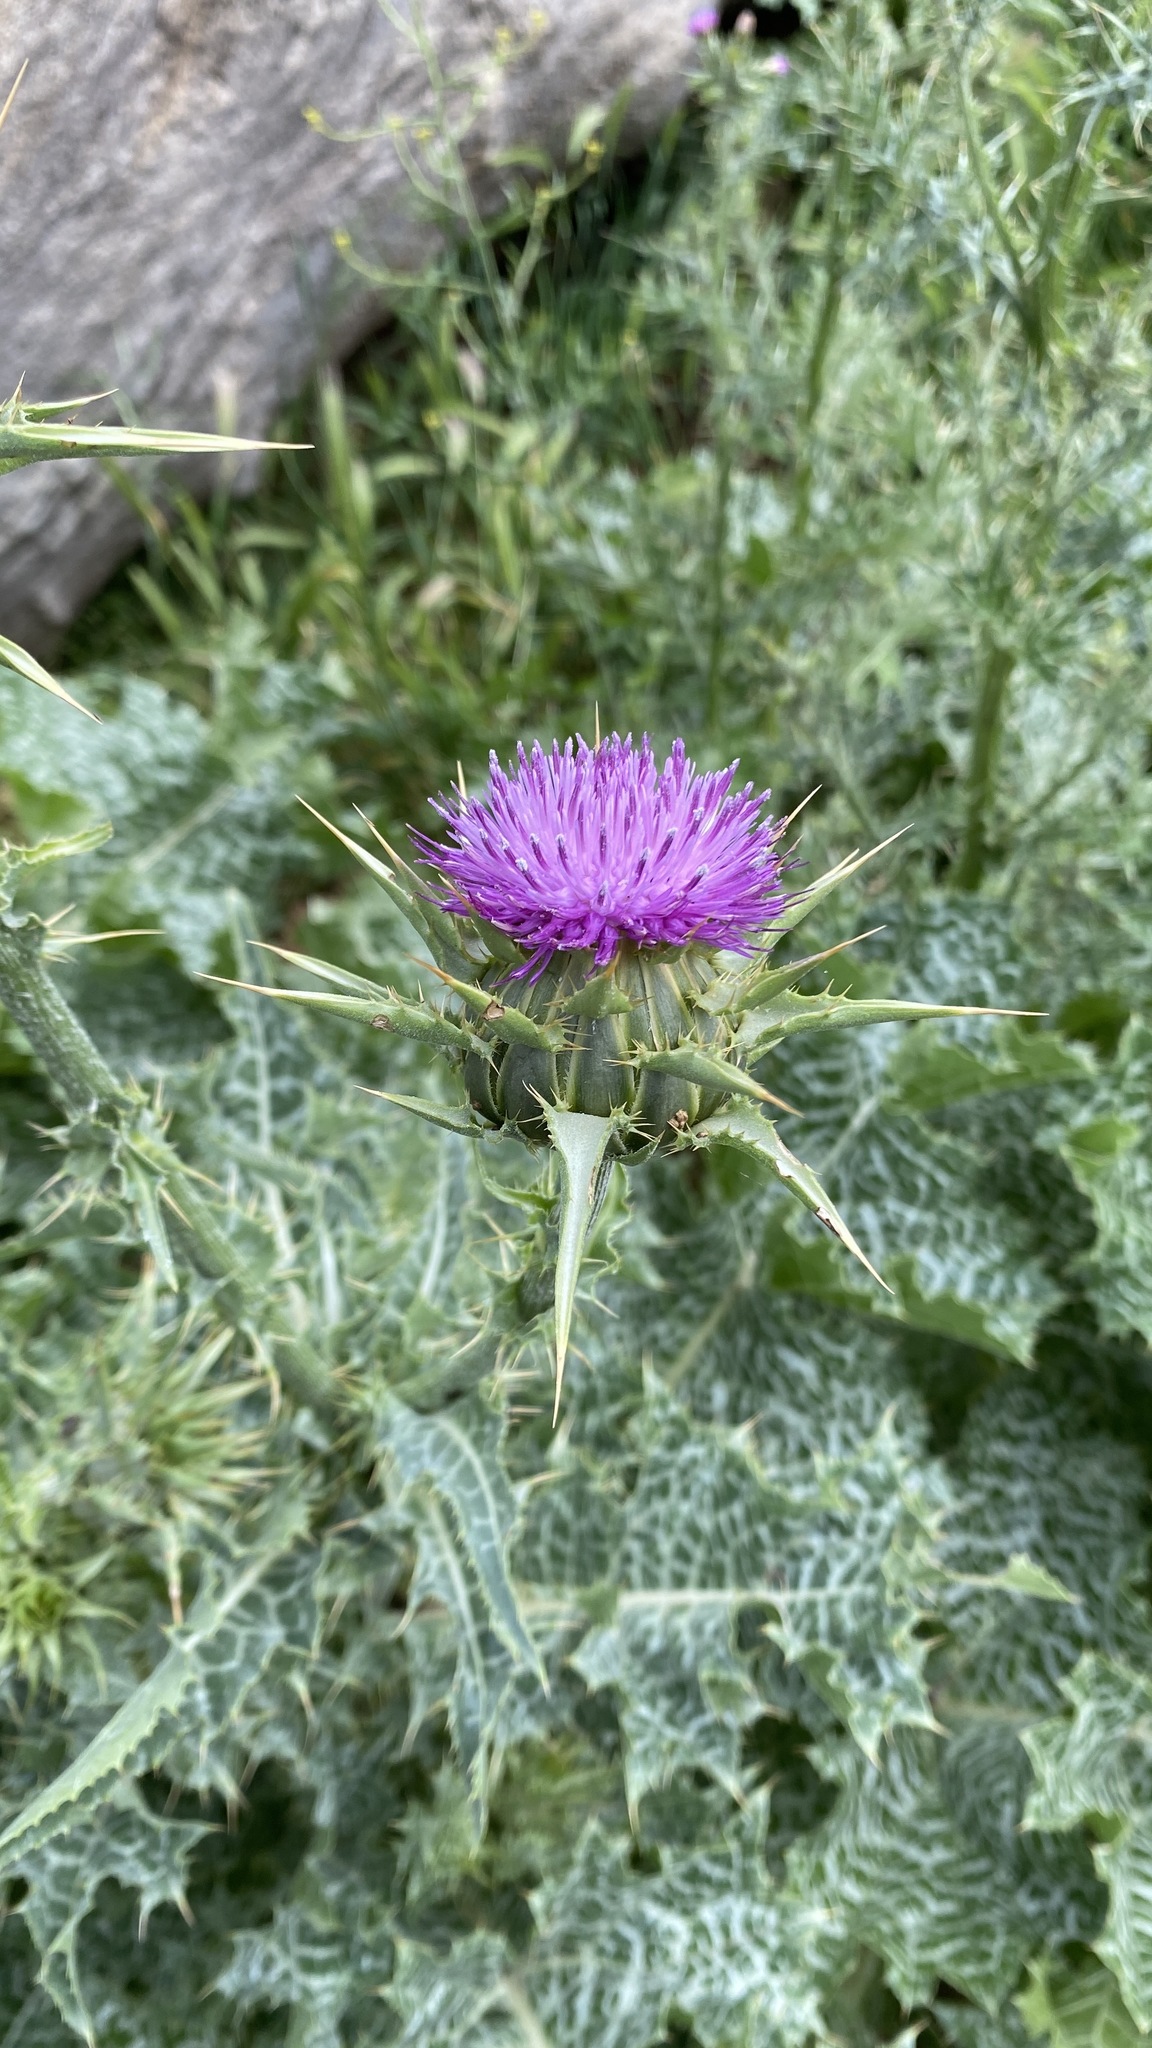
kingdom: Plantae
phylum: Tracheophyta
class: Magnoliopsida
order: Asterales
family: Asteraceae
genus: Silybum
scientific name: Silybum marianum
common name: Milk thistle
